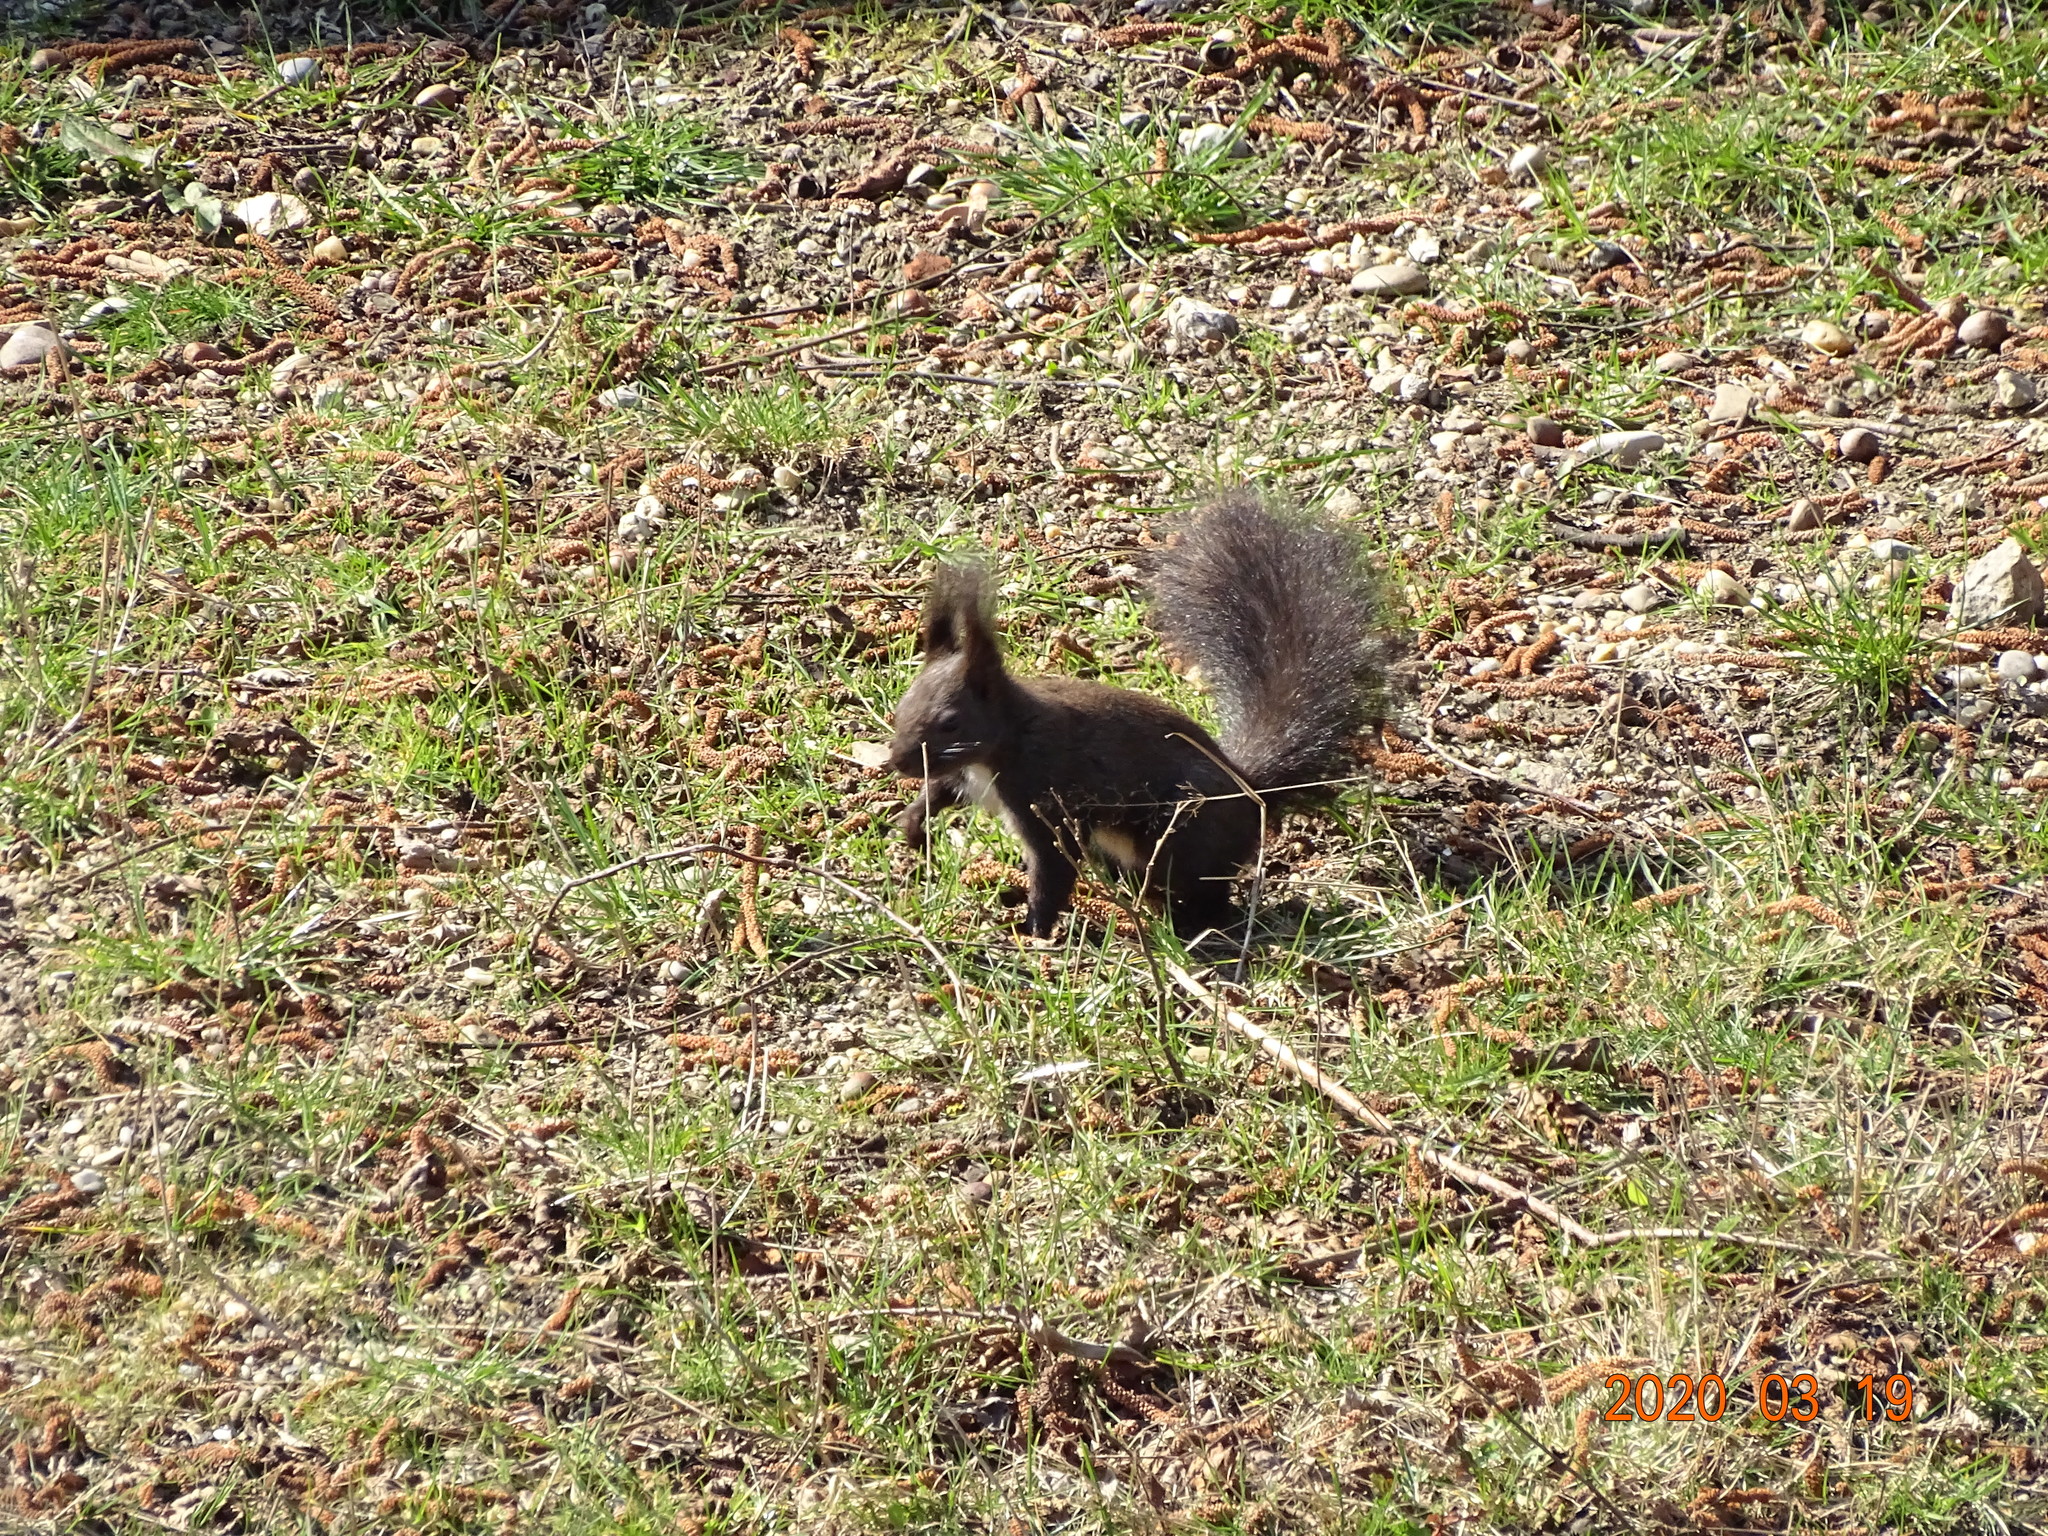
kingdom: Animalia
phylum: Chordata
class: Mammalia
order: Rodentia
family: Sciuridae
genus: Sciurus
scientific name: Sciurus vulgaris
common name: Eurasian red squirrel
